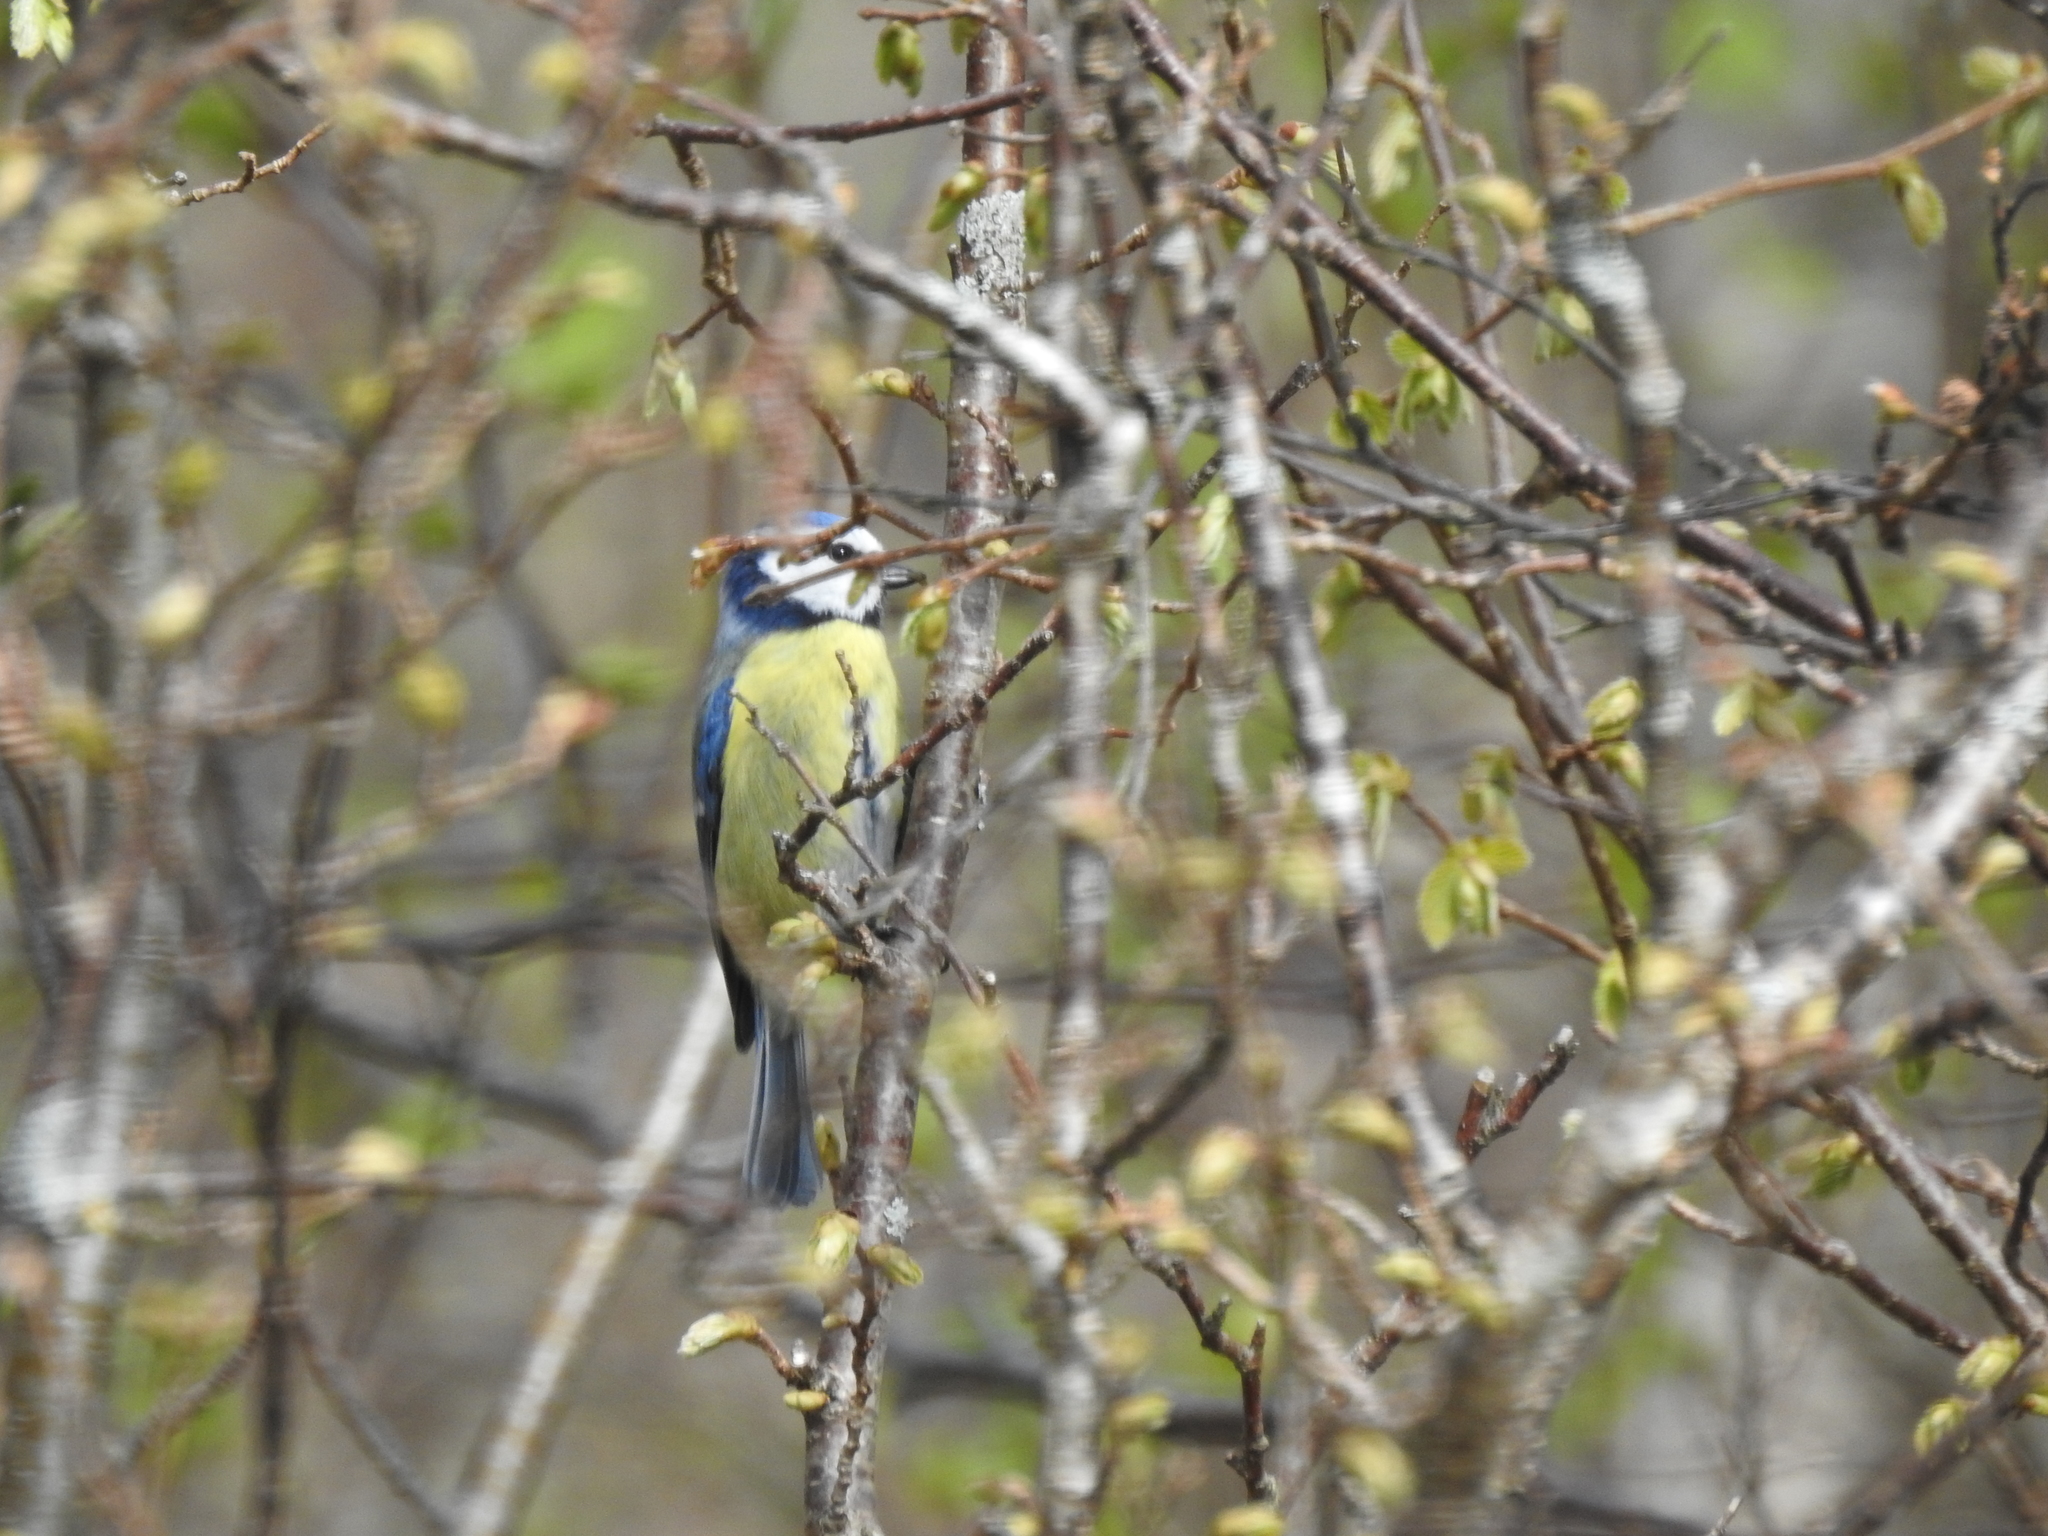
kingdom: Animalia
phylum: Chordata
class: Aves
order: Passeriformes
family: Paridae
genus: Cyanistes
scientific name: Cyanistes caeruleus
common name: Eurasian blue tit
